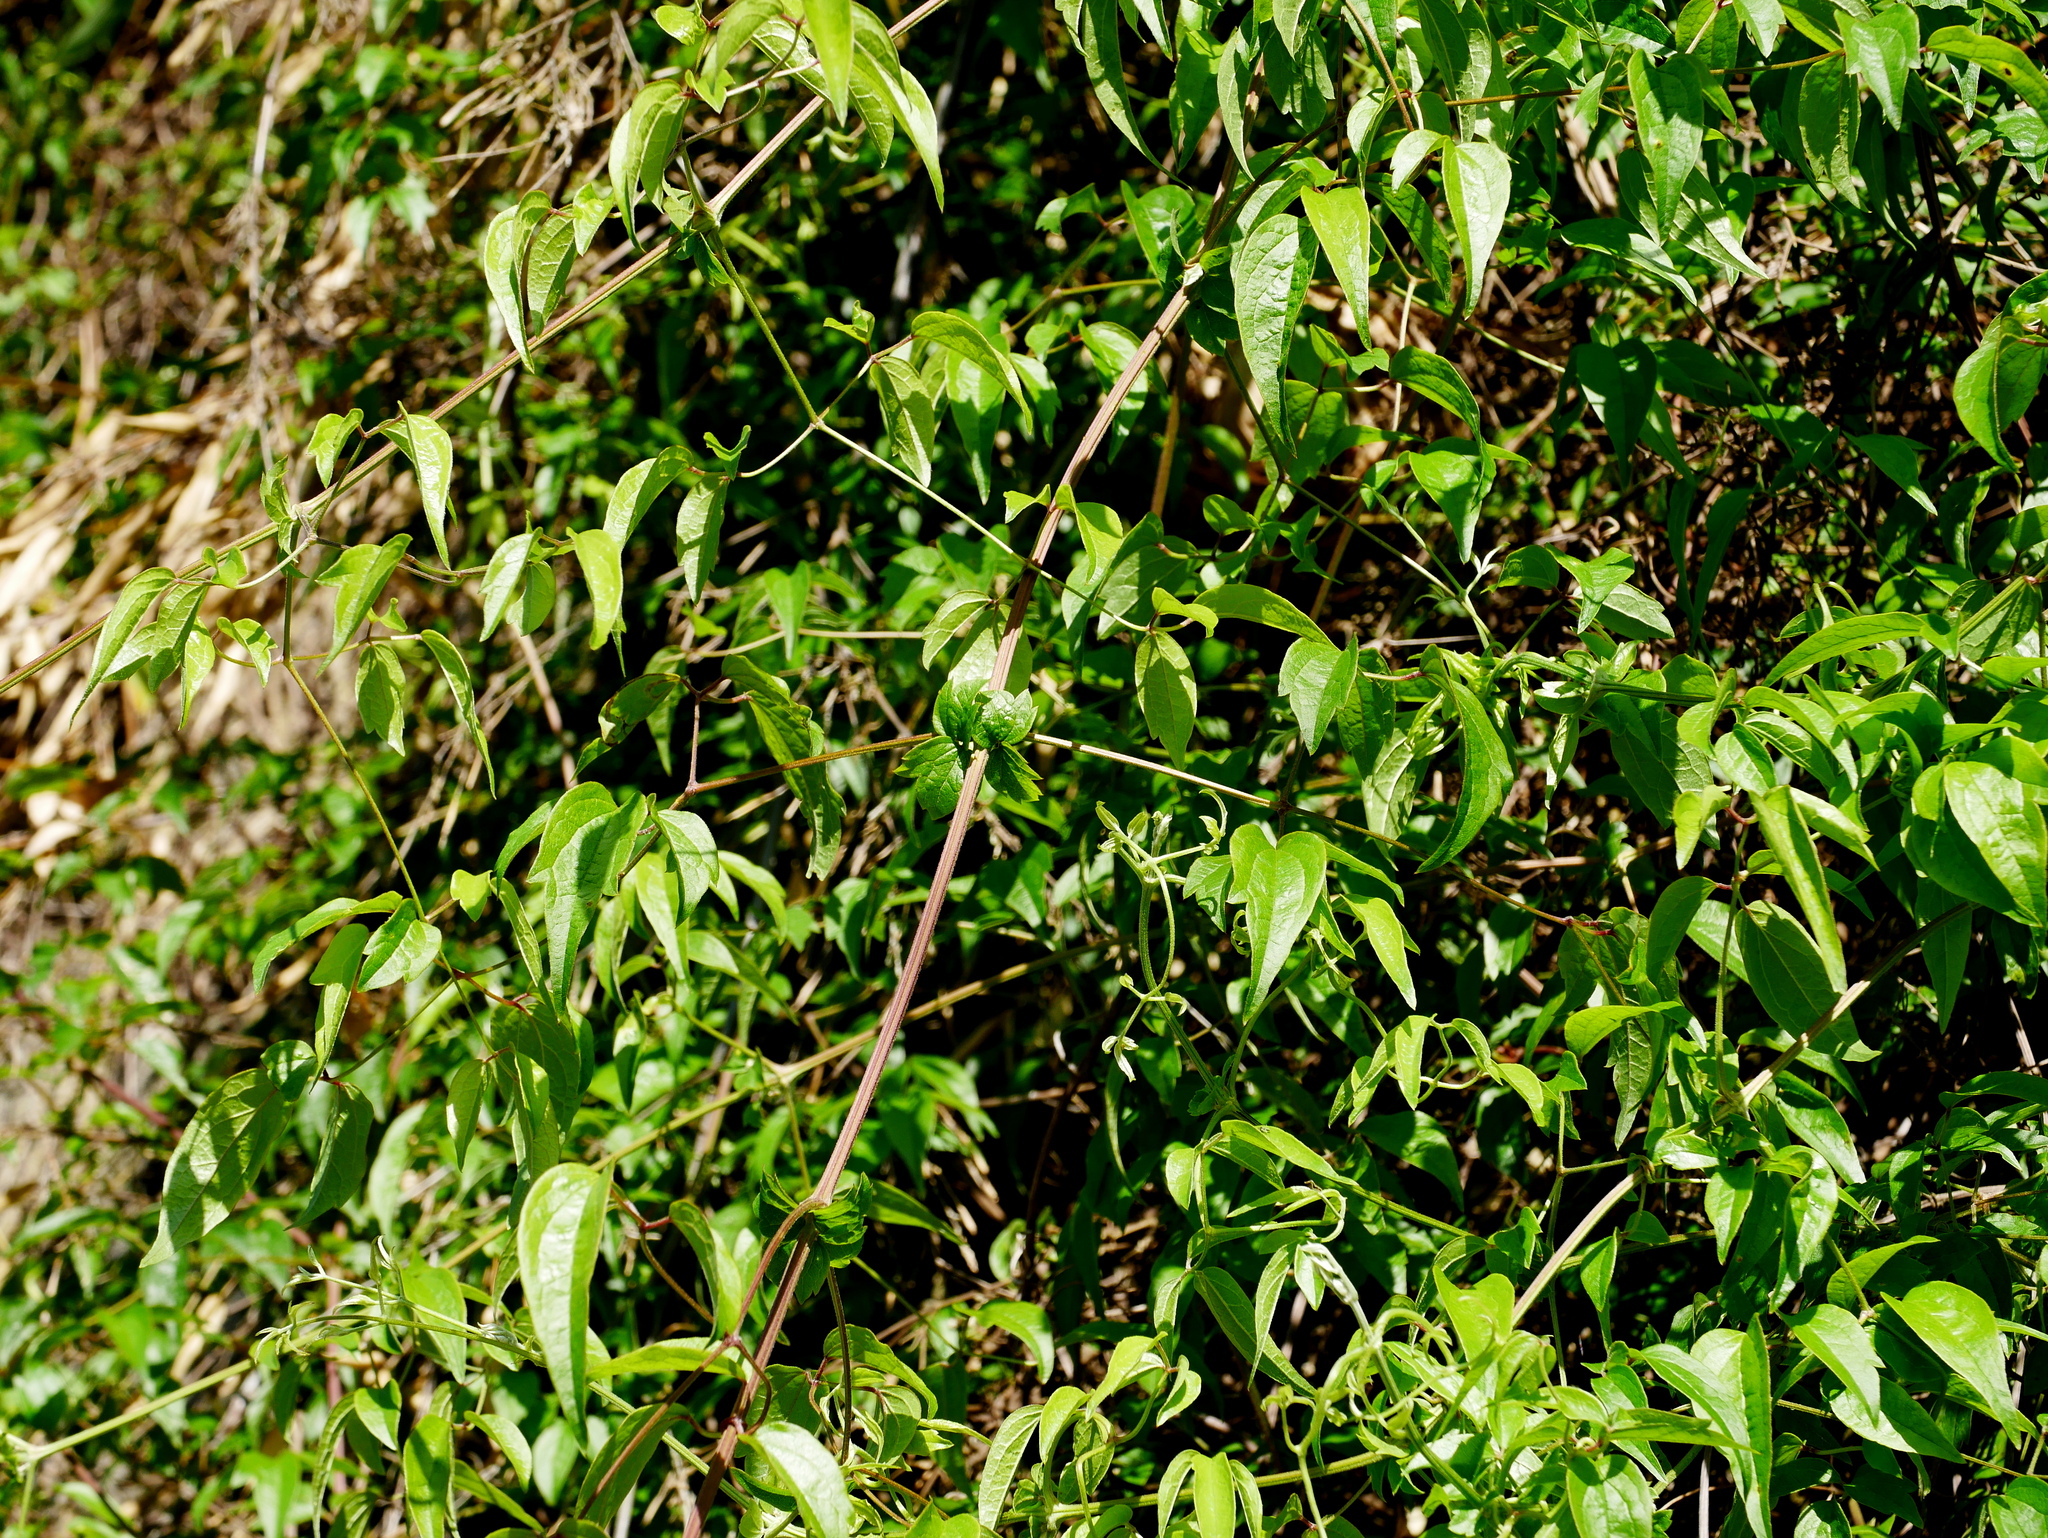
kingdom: Plantae
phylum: Tracheophyta
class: Magnoliopsida
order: Ranunculales
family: Ranunculaceae
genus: Clematis
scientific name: Clematis lishanensis
